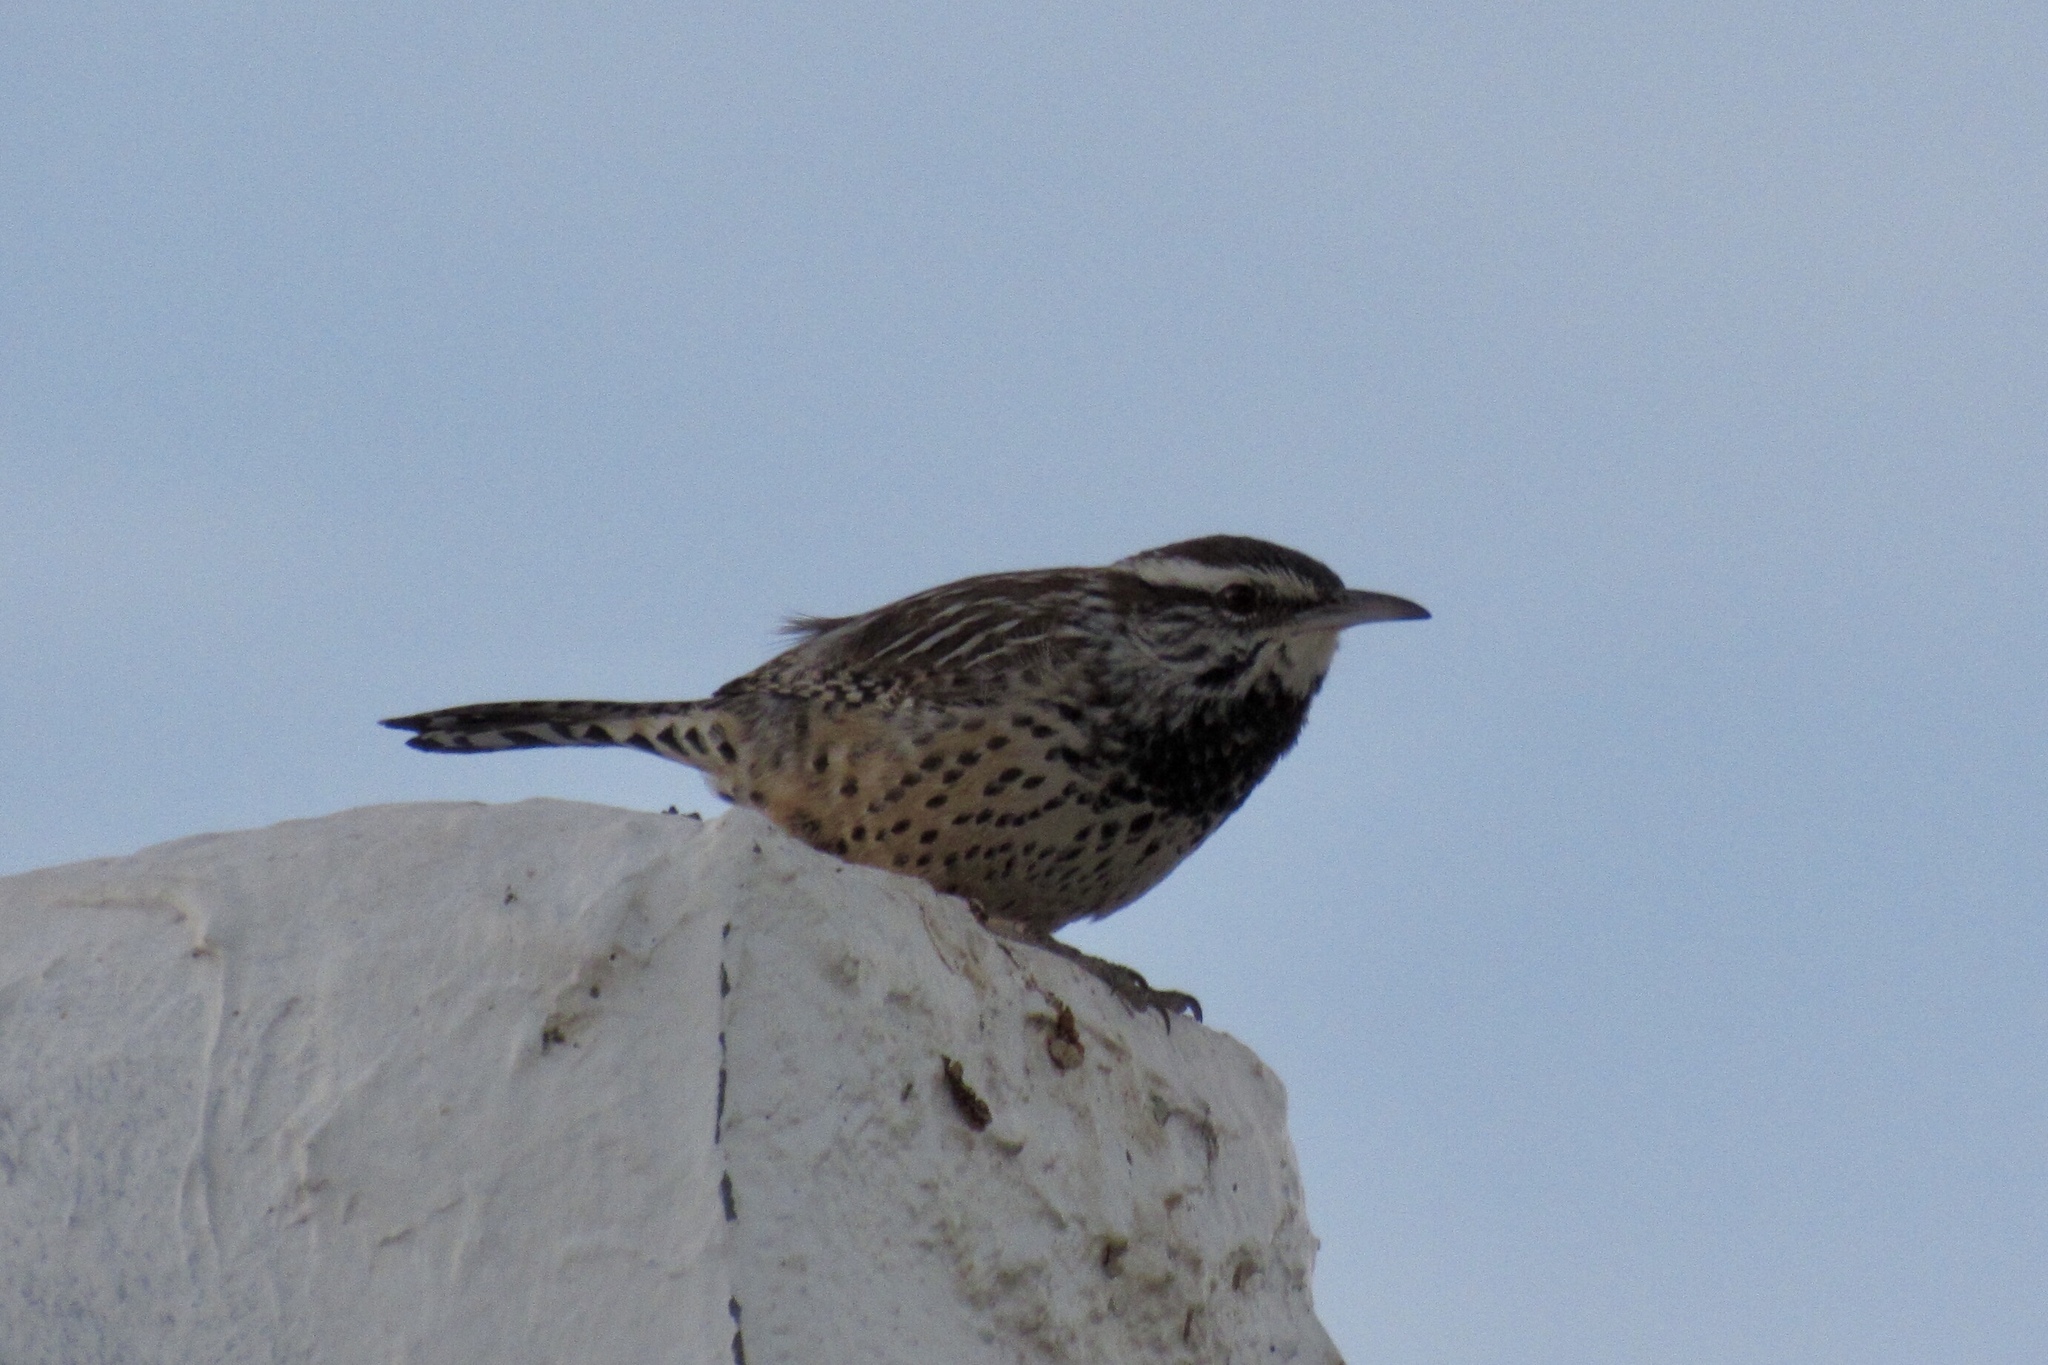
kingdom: Animalia
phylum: Chordata
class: Aves
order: Passeriformes
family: Troglodytidae
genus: Campylorhynchus
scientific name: Campylorhynchus brunneicapillus
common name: Cactus wren
